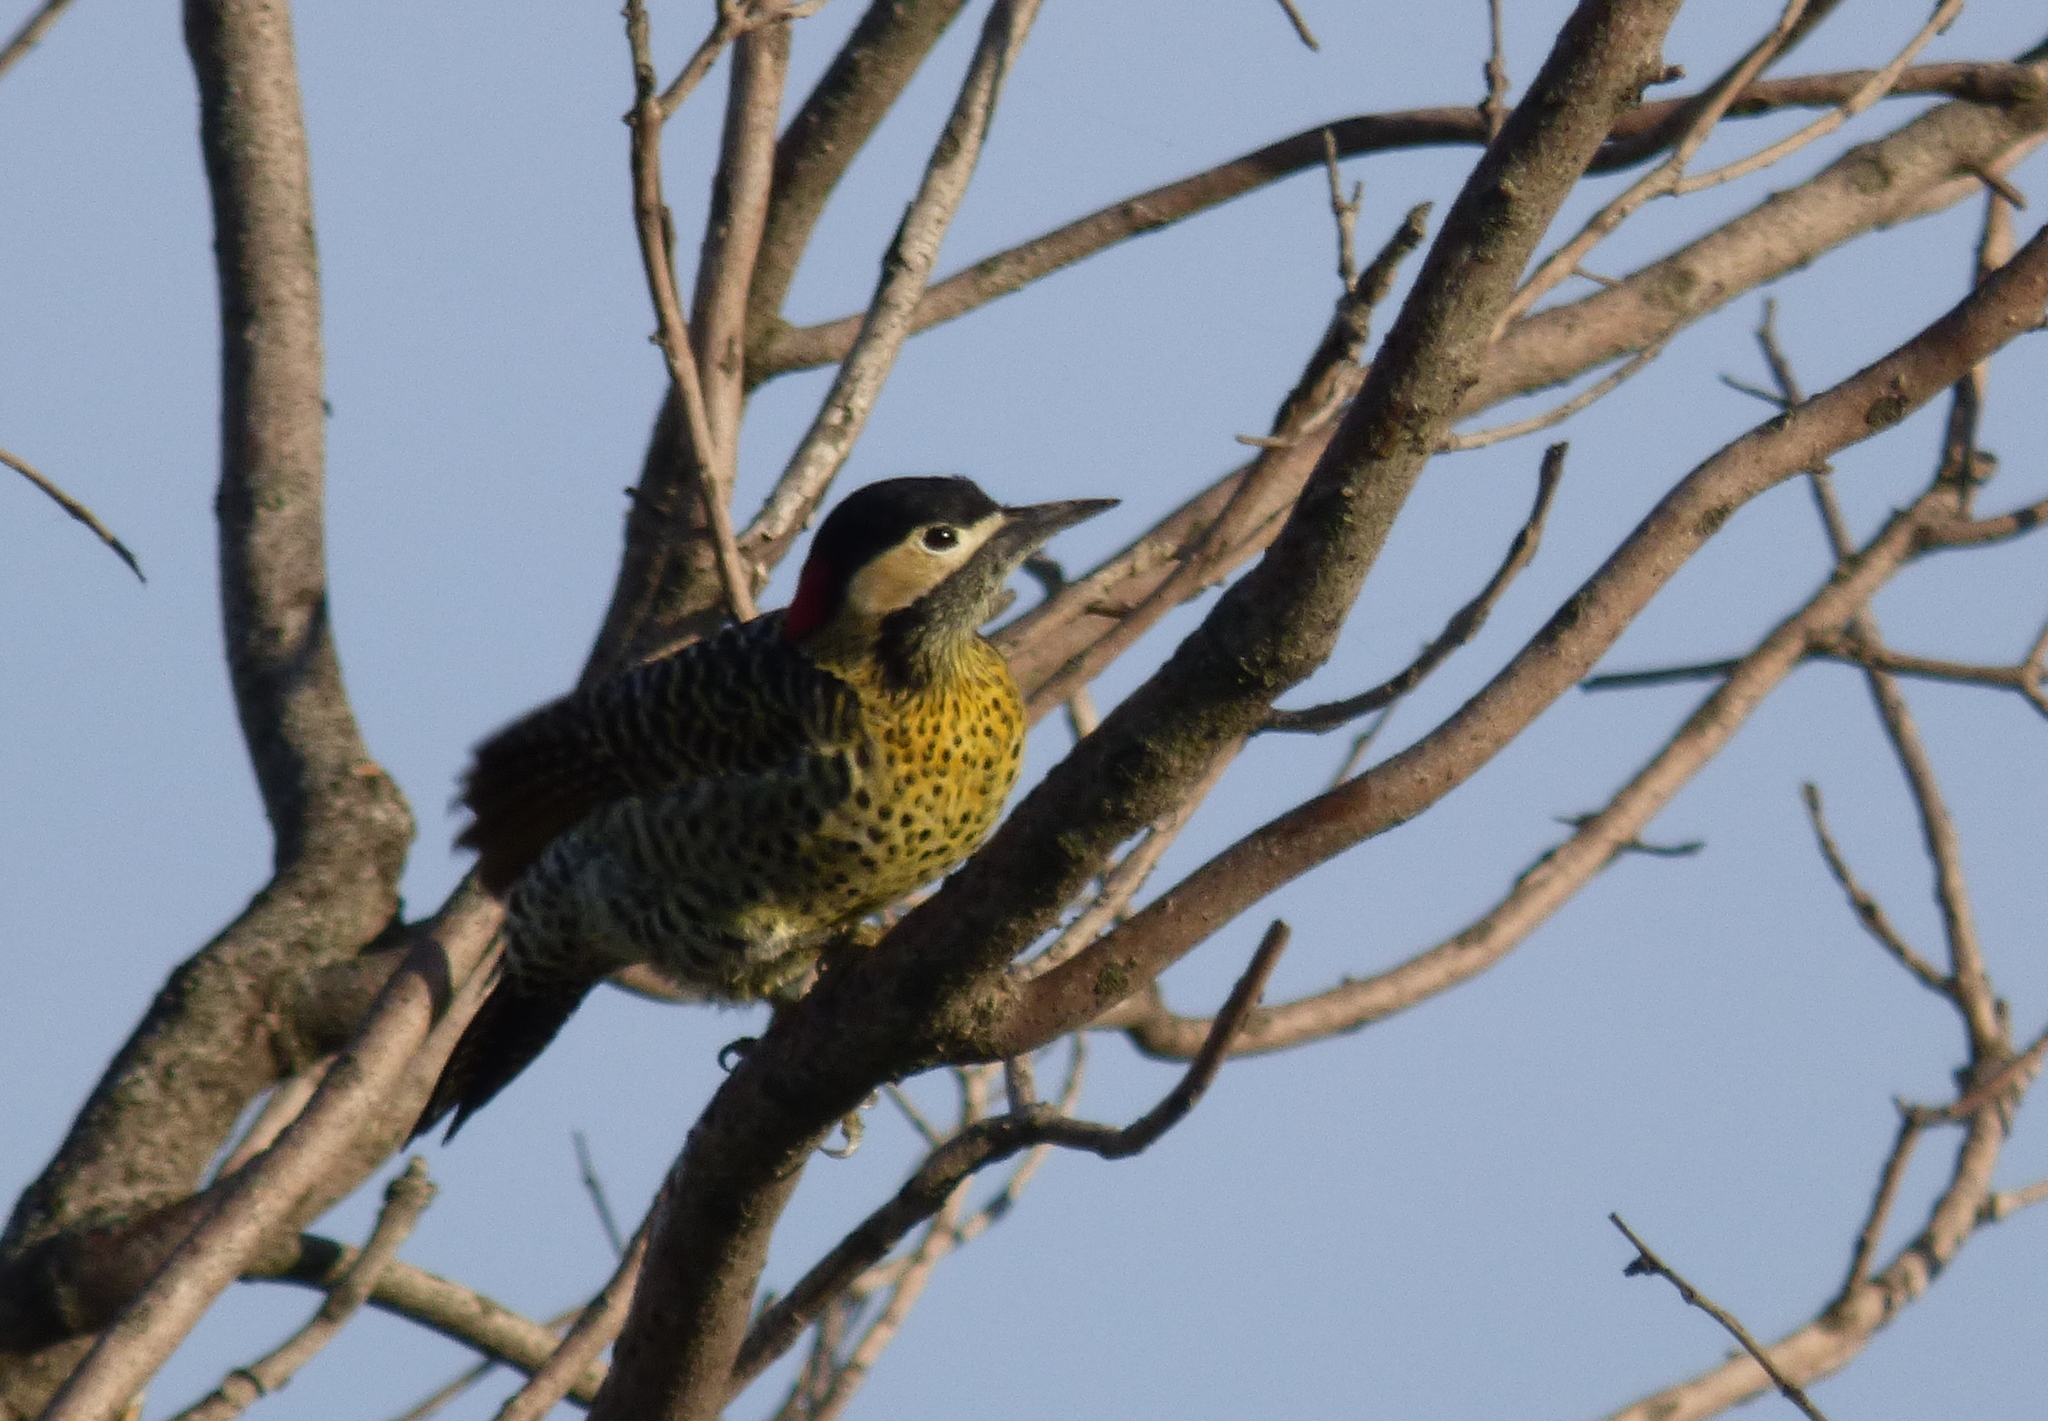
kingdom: Animalia
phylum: Chordata
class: Aves
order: Piciformes
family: Picidae
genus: Colaptes
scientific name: Colaptes melanochloros
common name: Green-barred woodpecker
